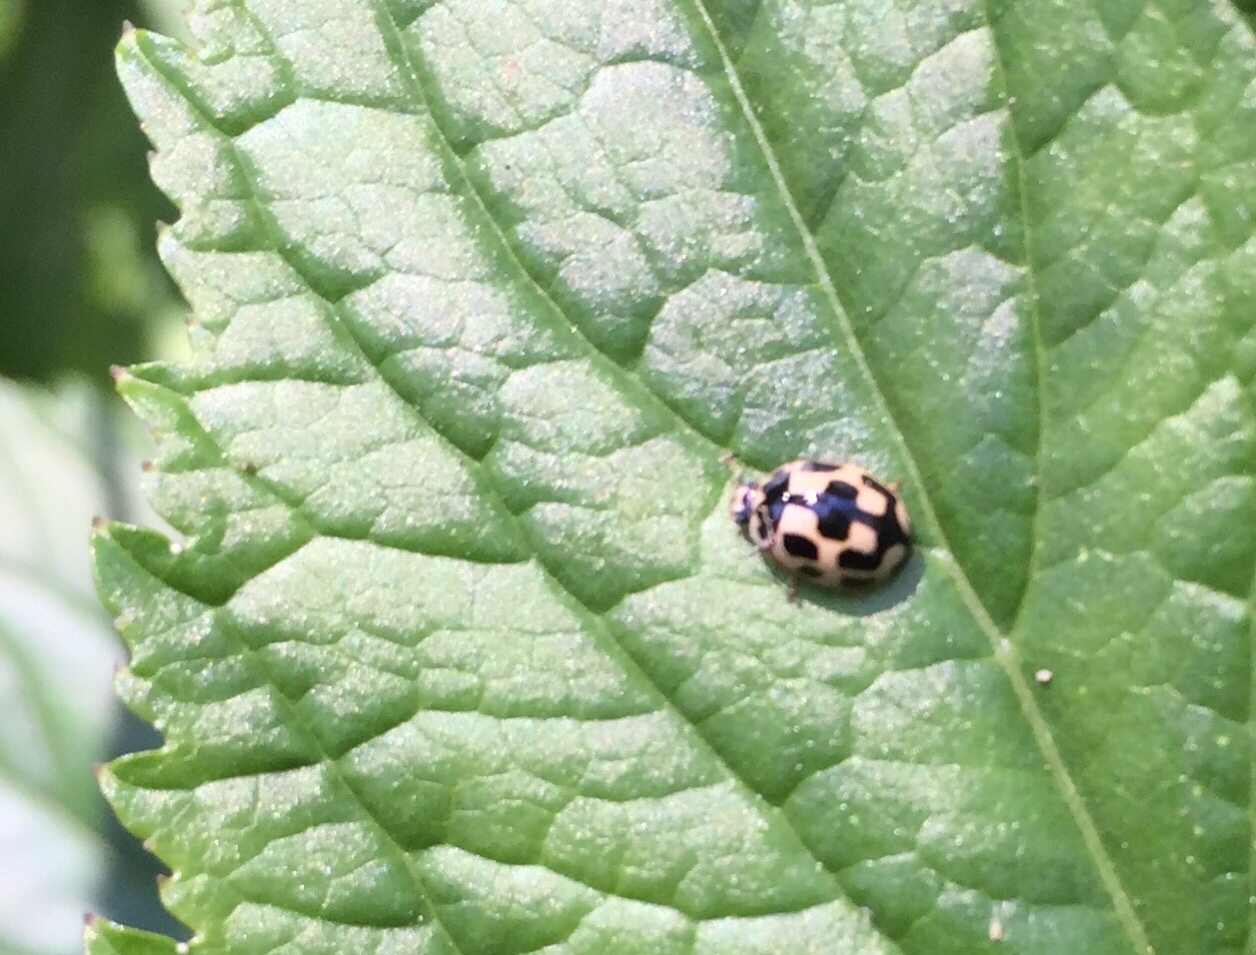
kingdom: Animalia
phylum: Arthropoda
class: Insecta
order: Coleoptera
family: Coccinellidae
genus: Propylaea
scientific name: Propylaea quatuordecimpunctata
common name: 14-spotted ladybird beetle
